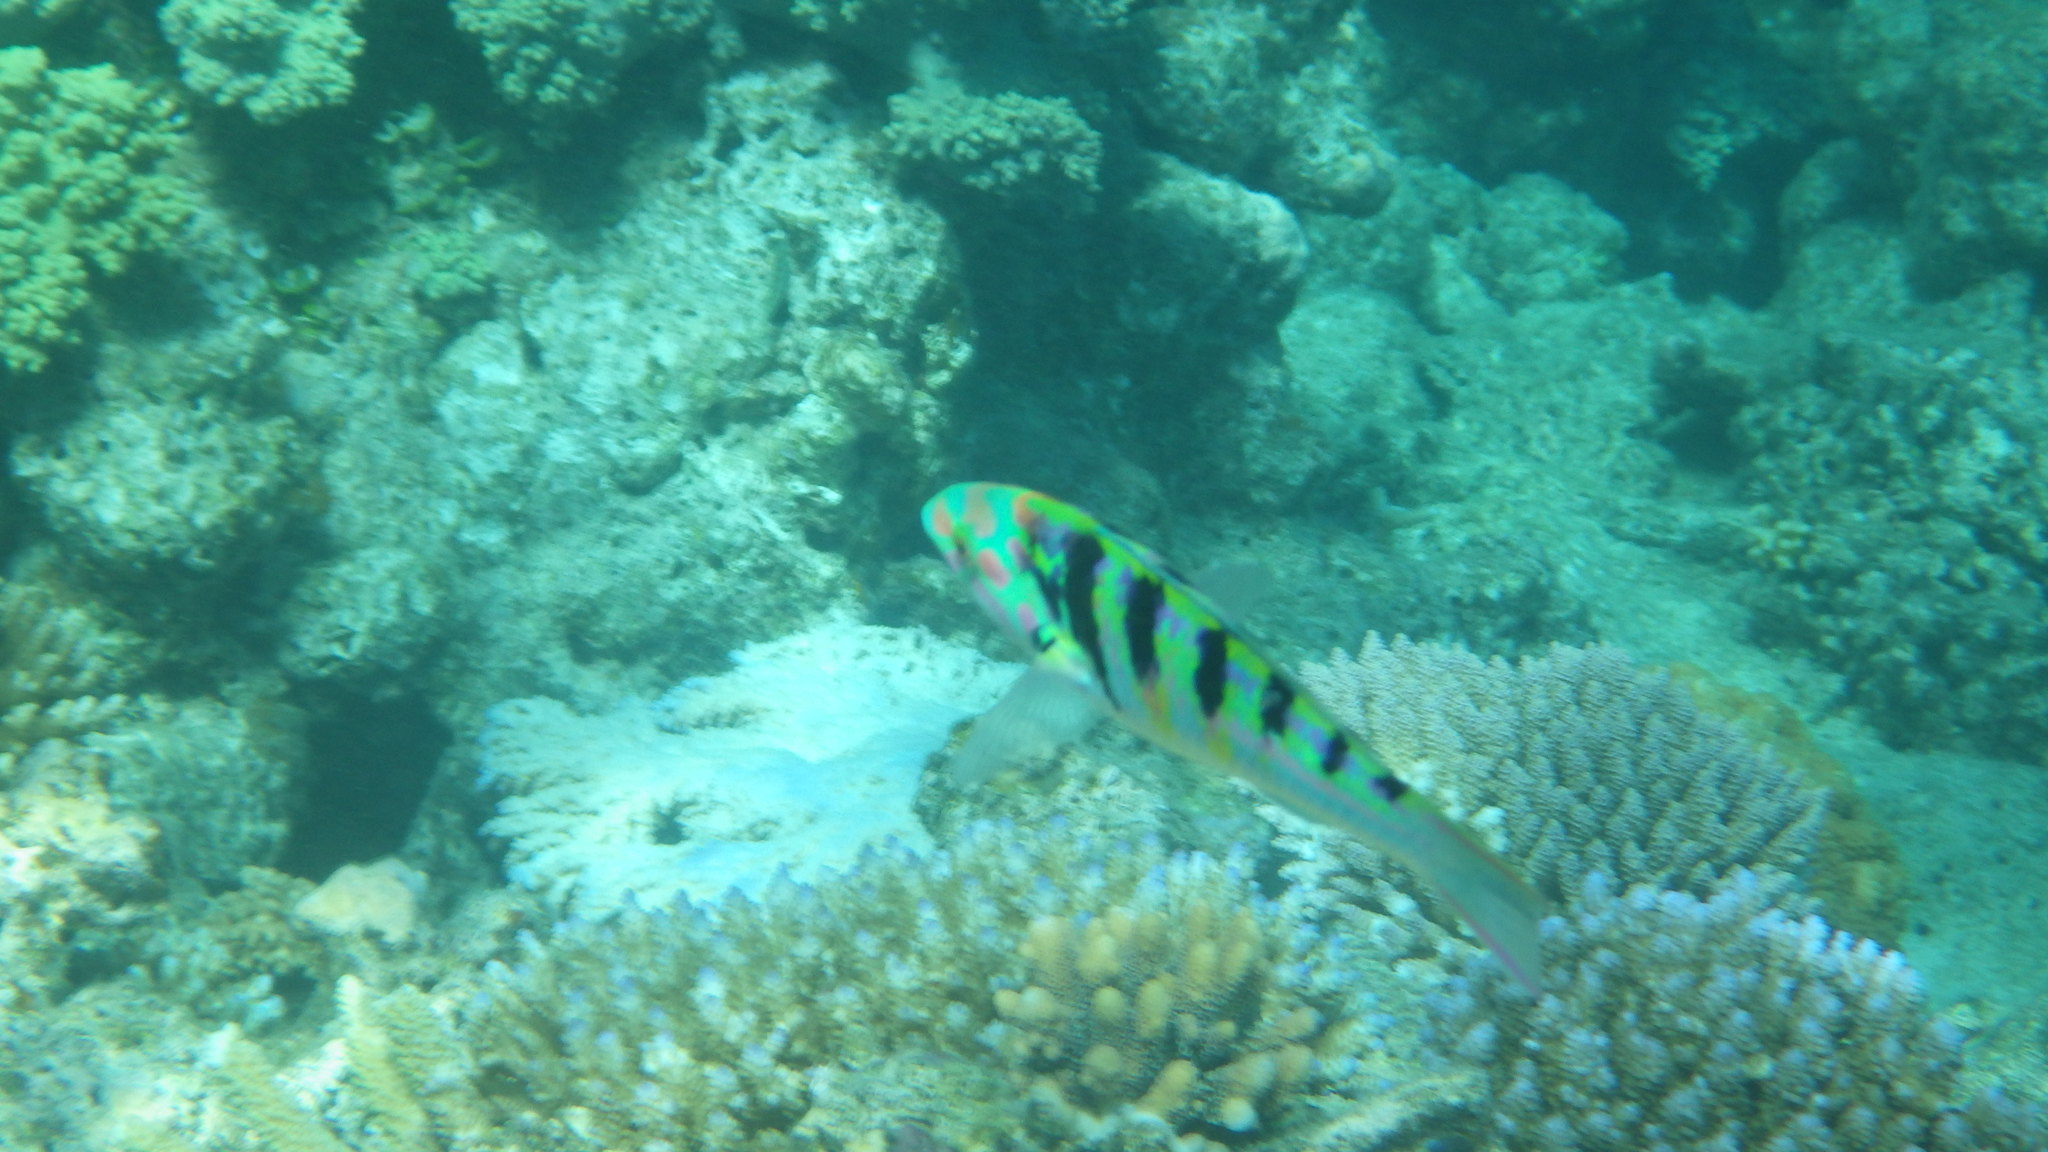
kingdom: Animalia
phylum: Chordata
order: Perciformes
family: Labridae
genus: Thalassoma
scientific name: Thalassoma hardwicke
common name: Sixbar wrasse
